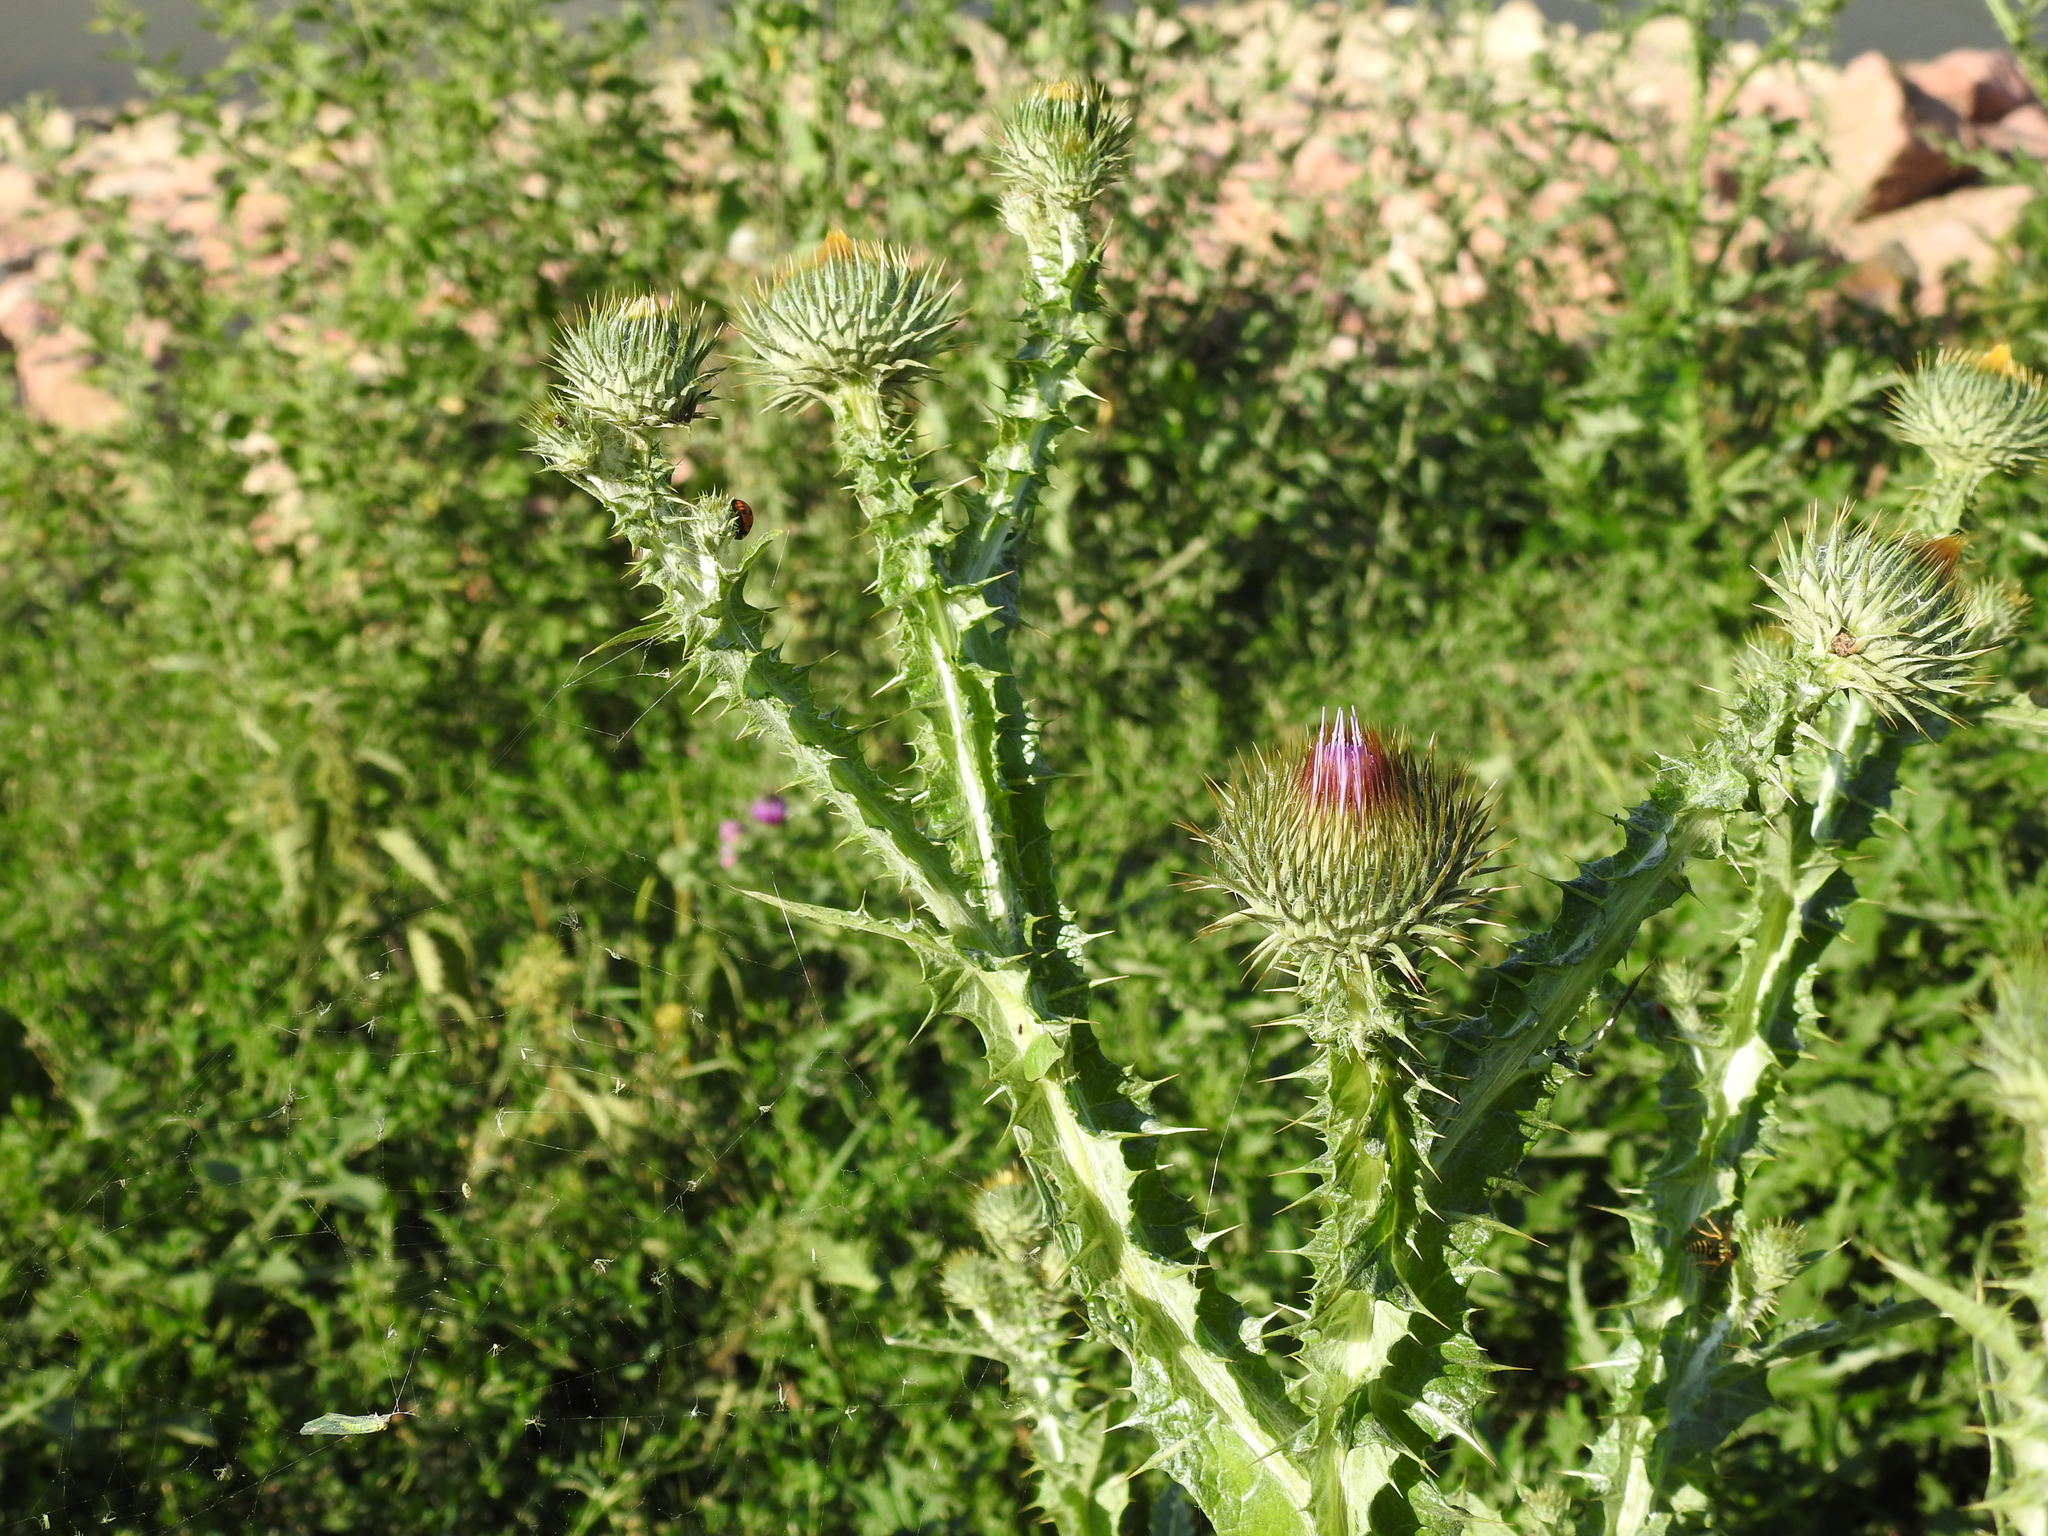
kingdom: Plantae
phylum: Tracheophyta
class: Magnoliopsida
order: Asterales
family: Asteraceae
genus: Onopordum
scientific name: Onopordum acanthium
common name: Scotch thistle
